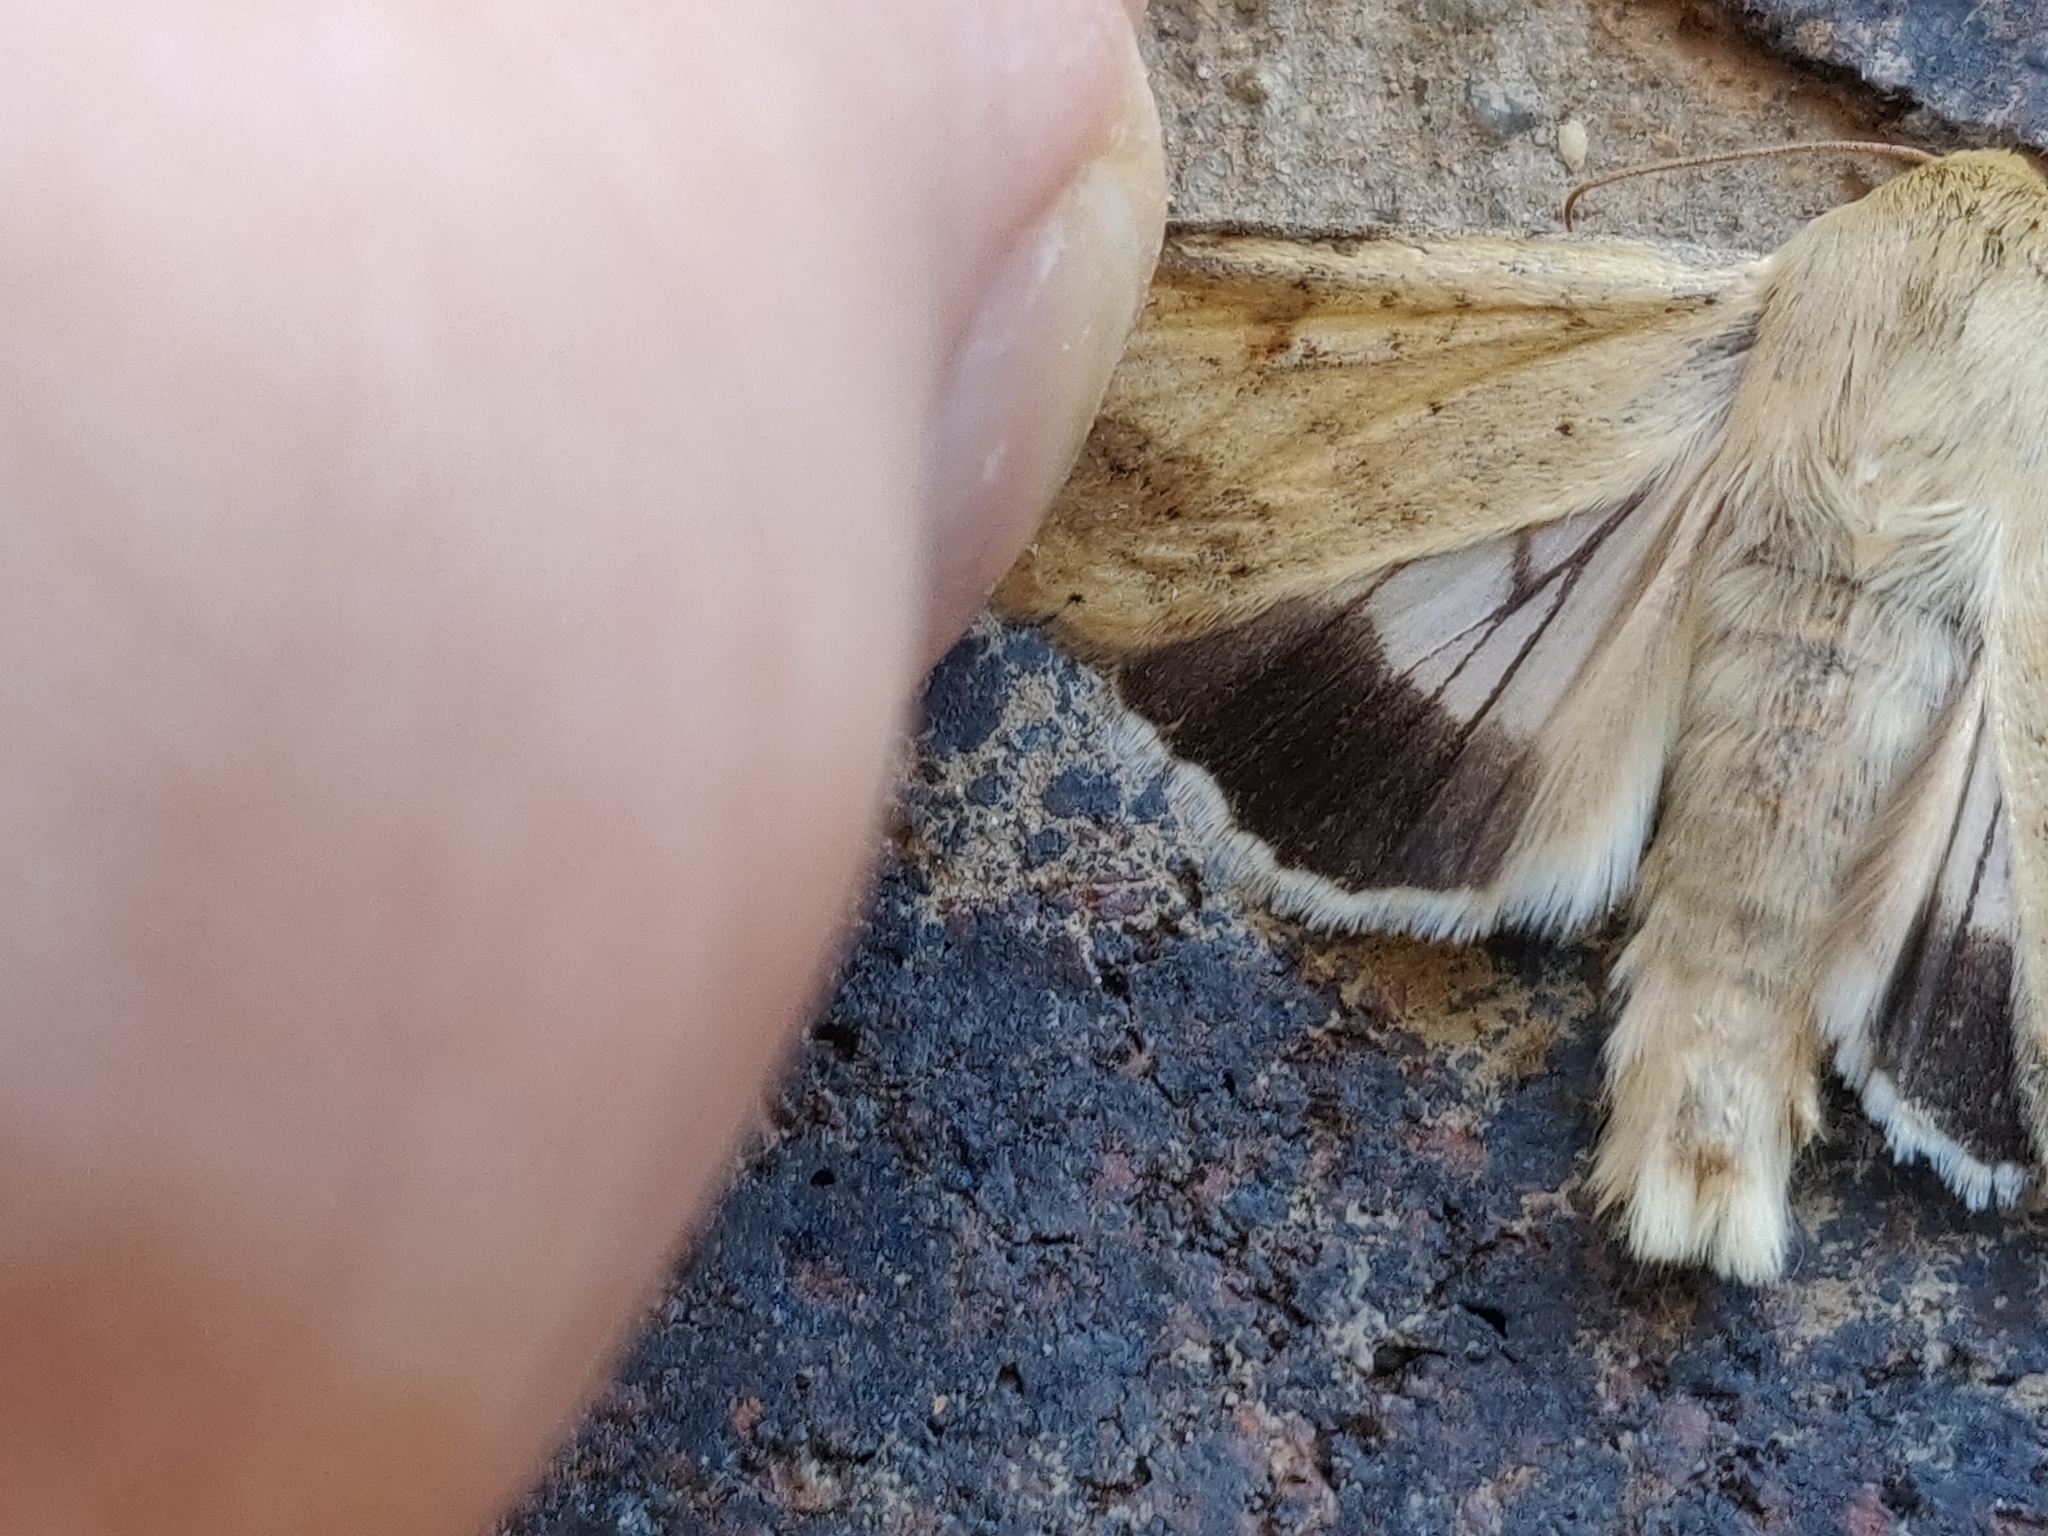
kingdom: Animalia
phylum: Arthropoda
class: Insecta
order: Lepidoptera
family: Noctuidae
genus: Helicoverpa
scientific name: Helicoverpa punctigera
